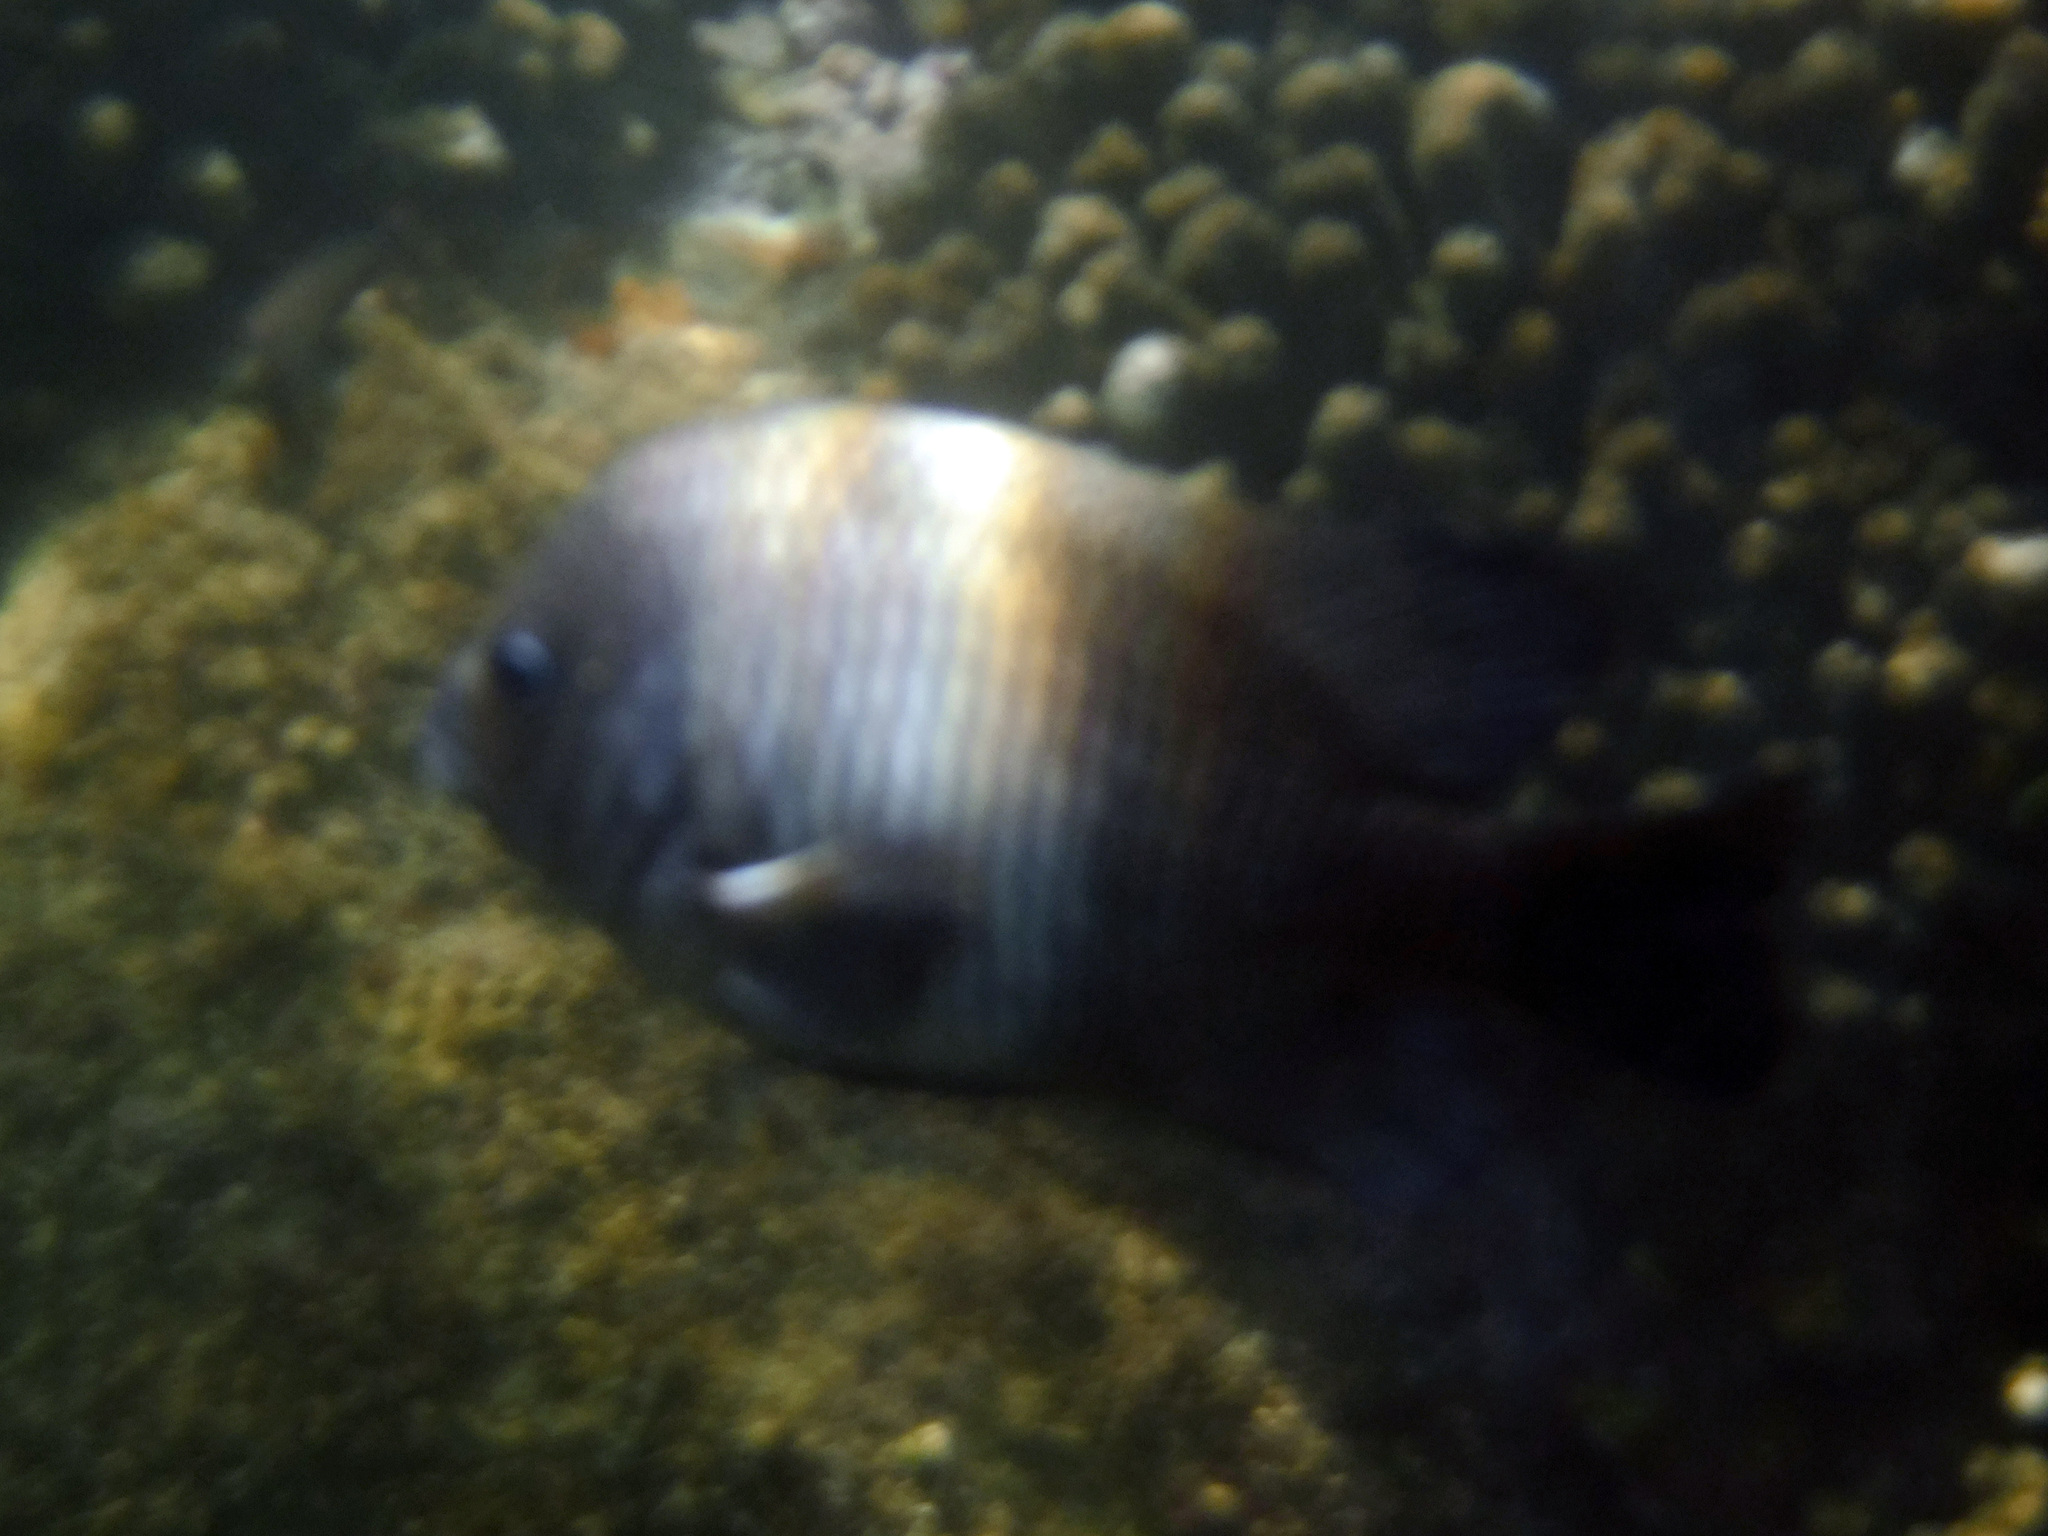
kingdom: Animalia
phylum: Chordata
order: Perciformes
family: Pomacentridae
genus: Stegastes
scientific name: Stegastes acapulcoensis
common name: Acapulco damselfish
